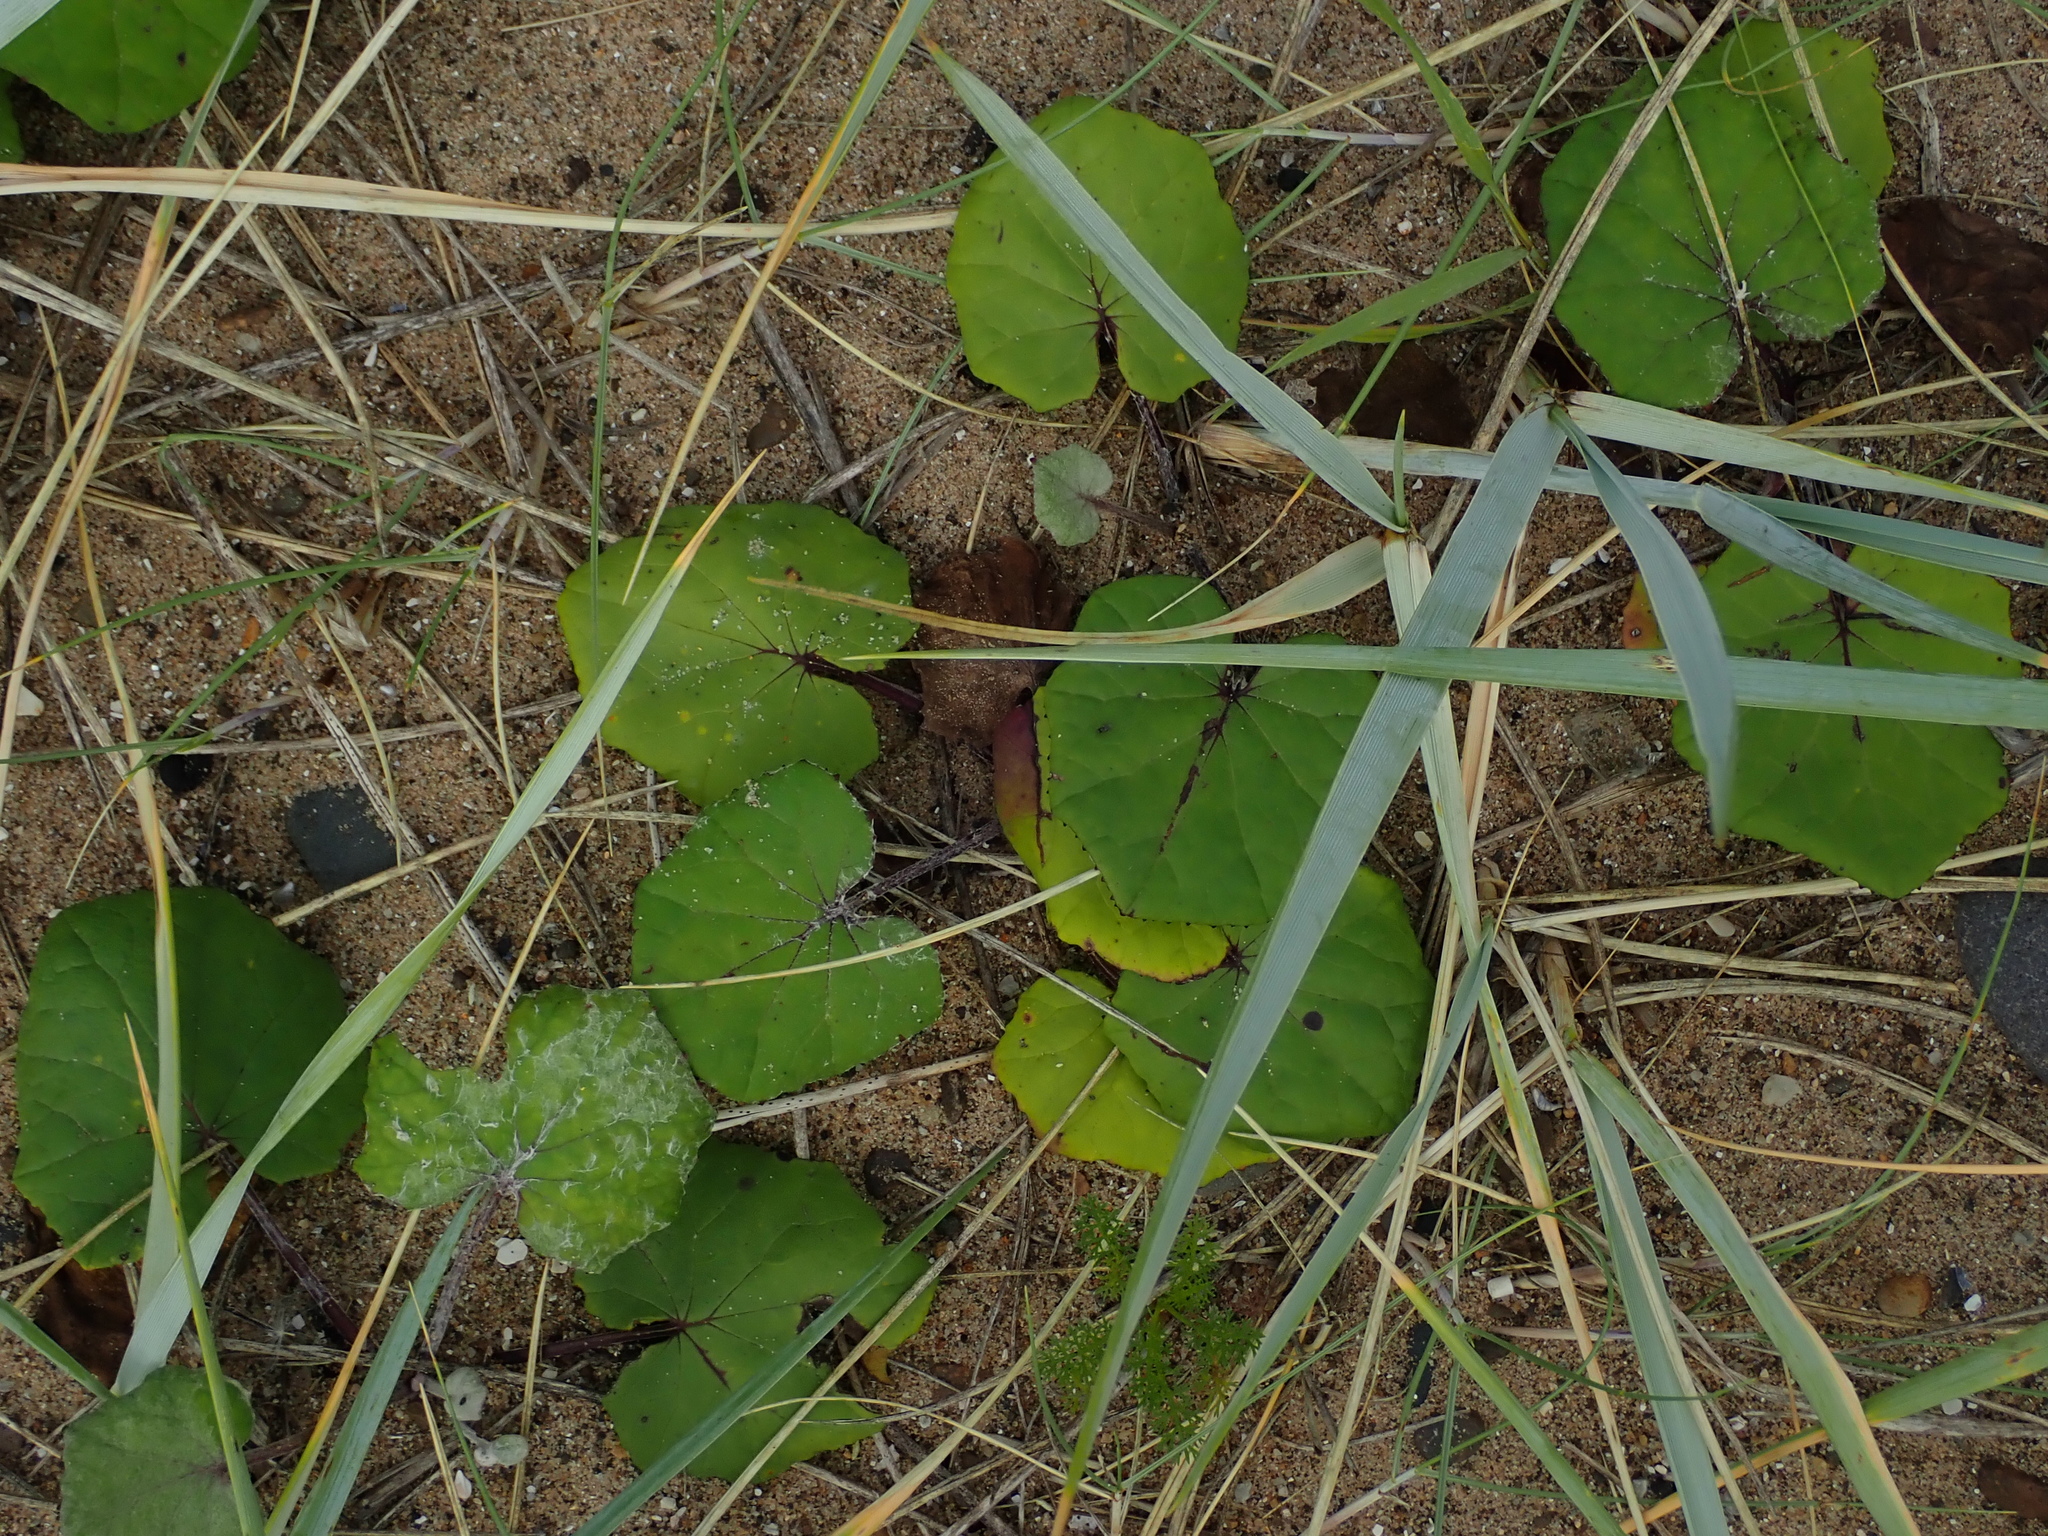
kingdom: Plantae
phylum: Tracheophyta
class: Magnoliopsida
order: Asterales
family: Asteraceae
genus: Tussilago
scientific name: Tussilago farfara
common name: Coltsfoot
